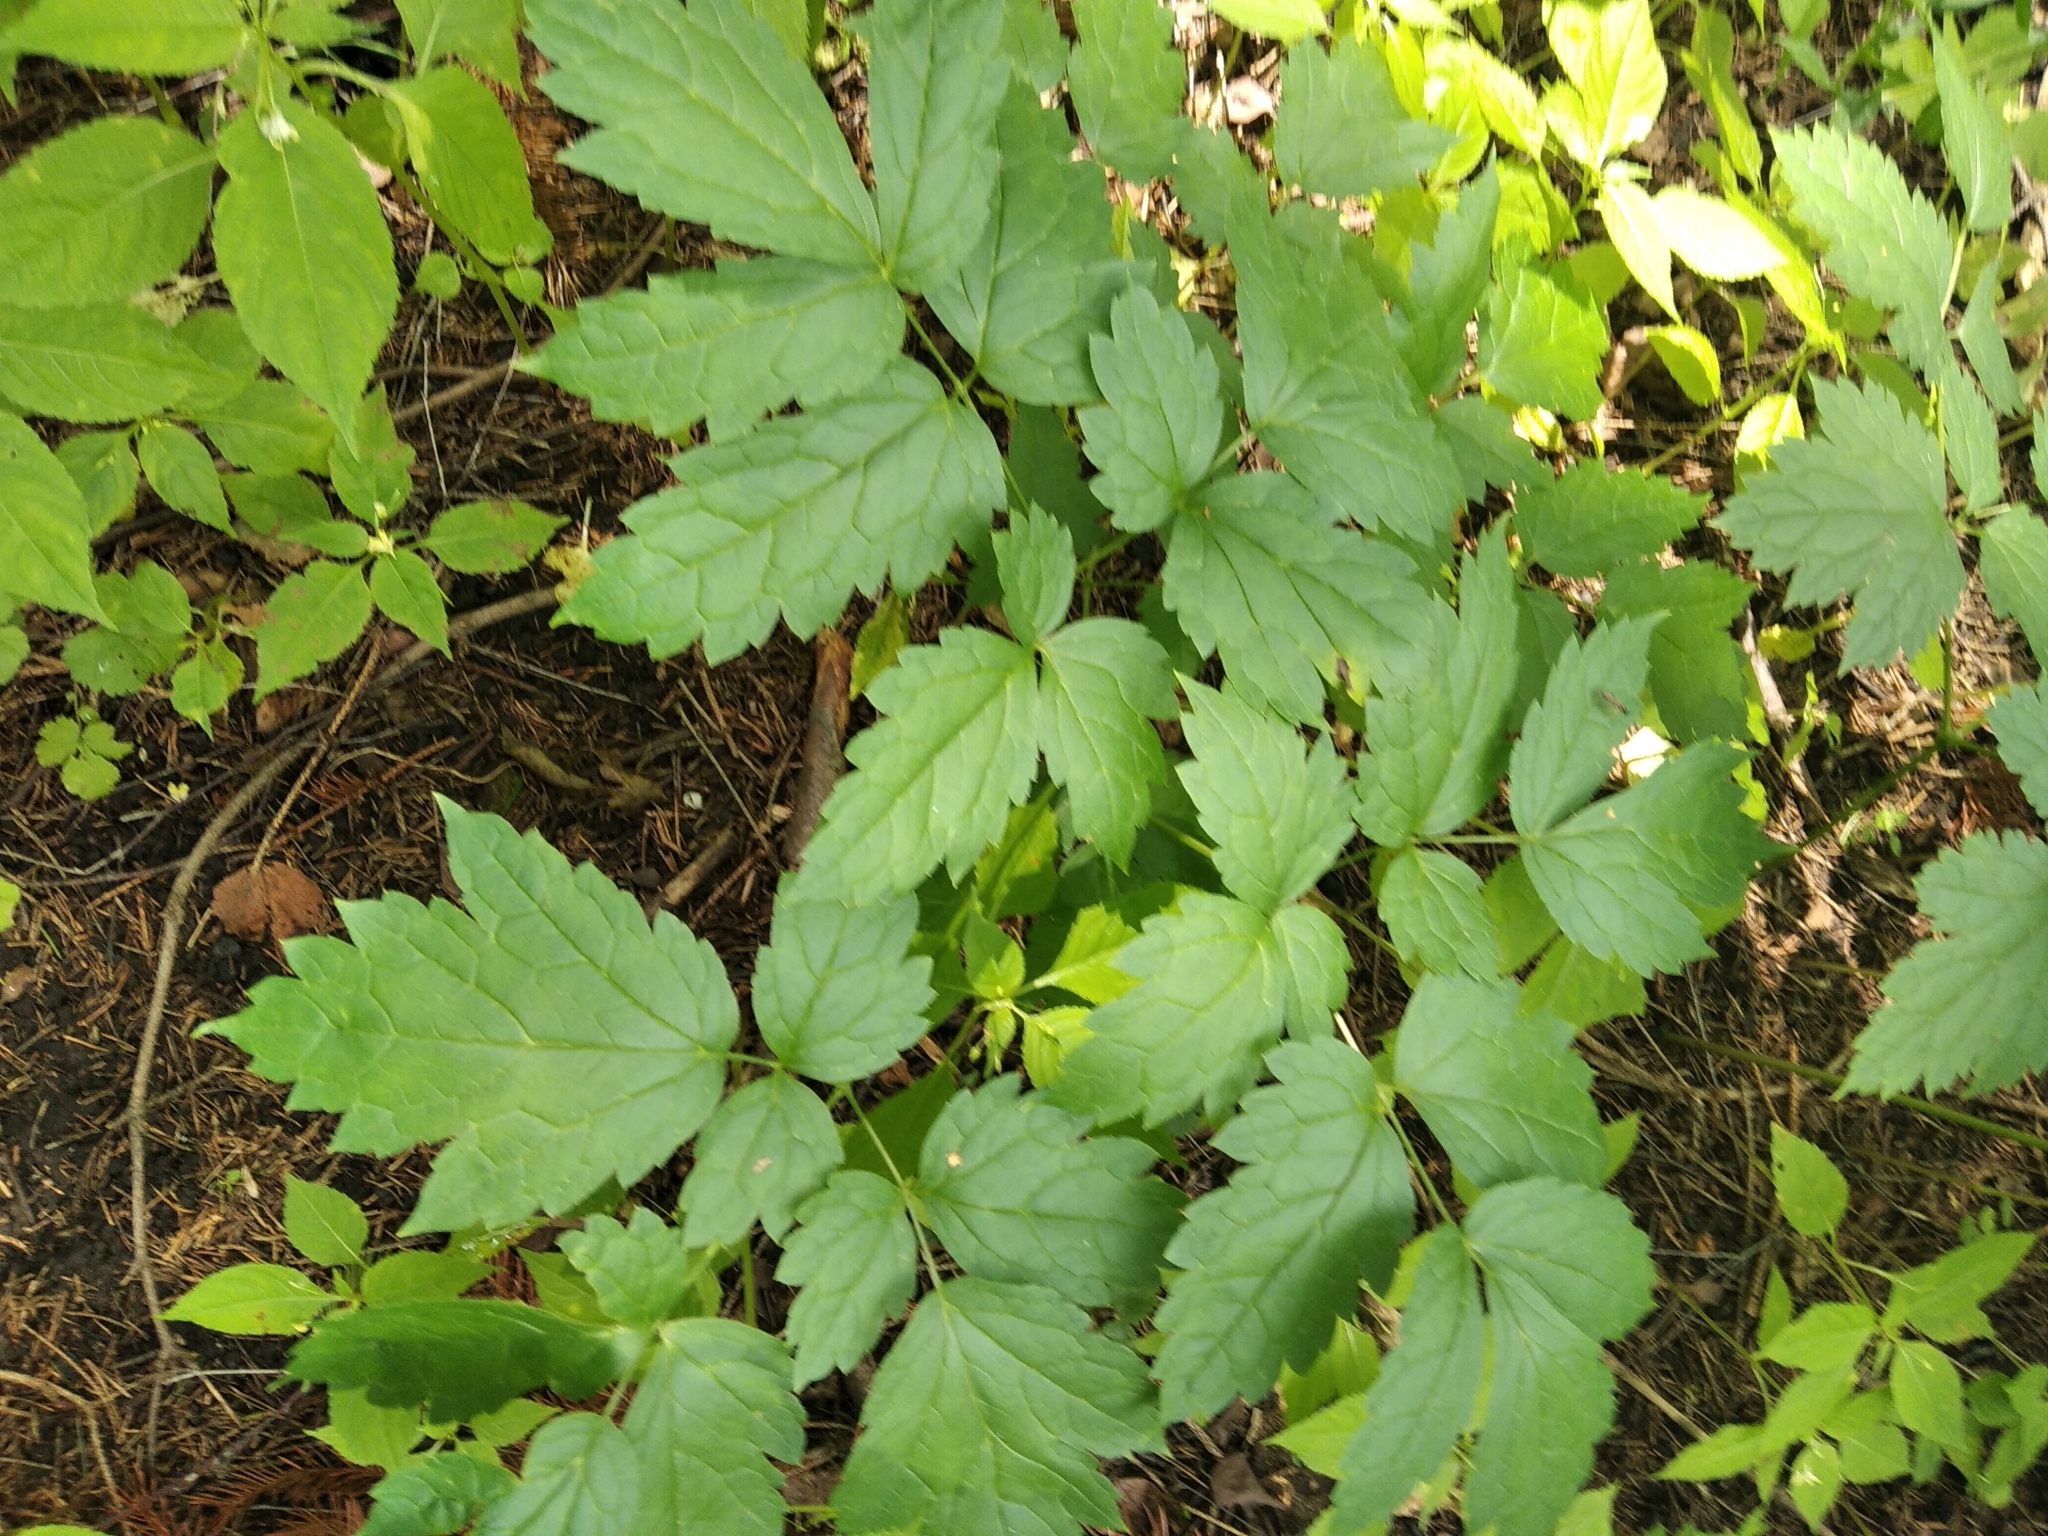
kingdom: Plantae
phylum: Tracheophyta
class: Magnoliopsida
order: Ranunculales
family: Ranunculaceae
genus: Actaea
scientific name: Actaea spicata
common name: Baneberry
